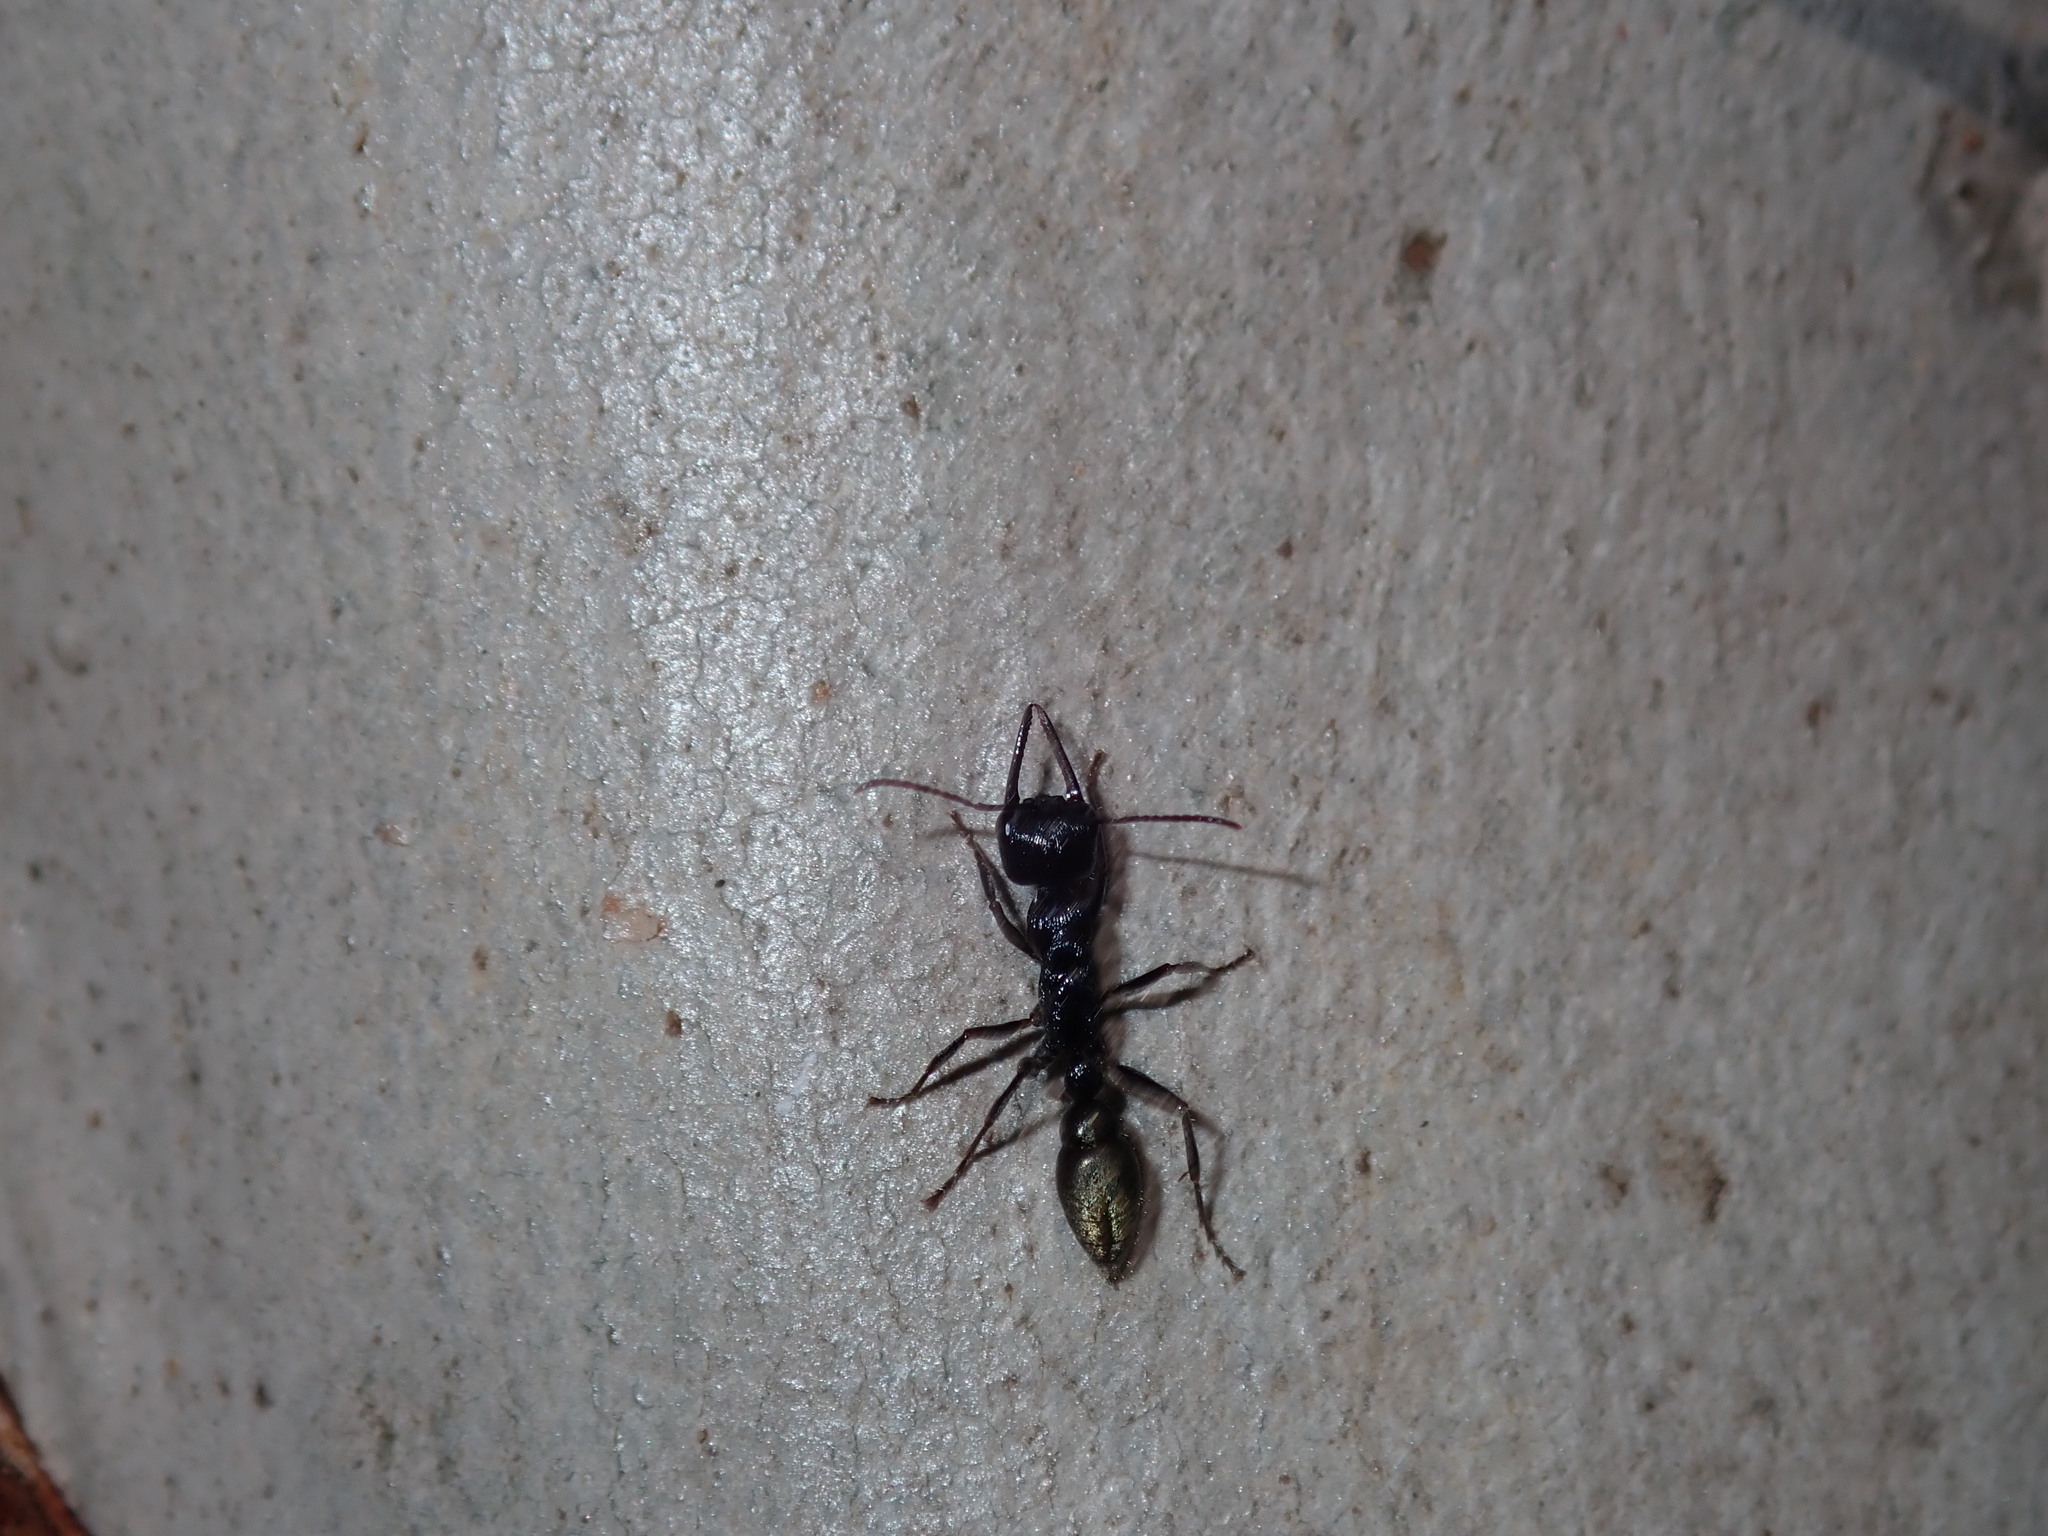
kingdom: Animalia
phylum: Arthropoda
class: Insecta
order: Hymenoptera
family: Formicidae
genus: Myrmecia
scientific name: Myrmecia piliventris
